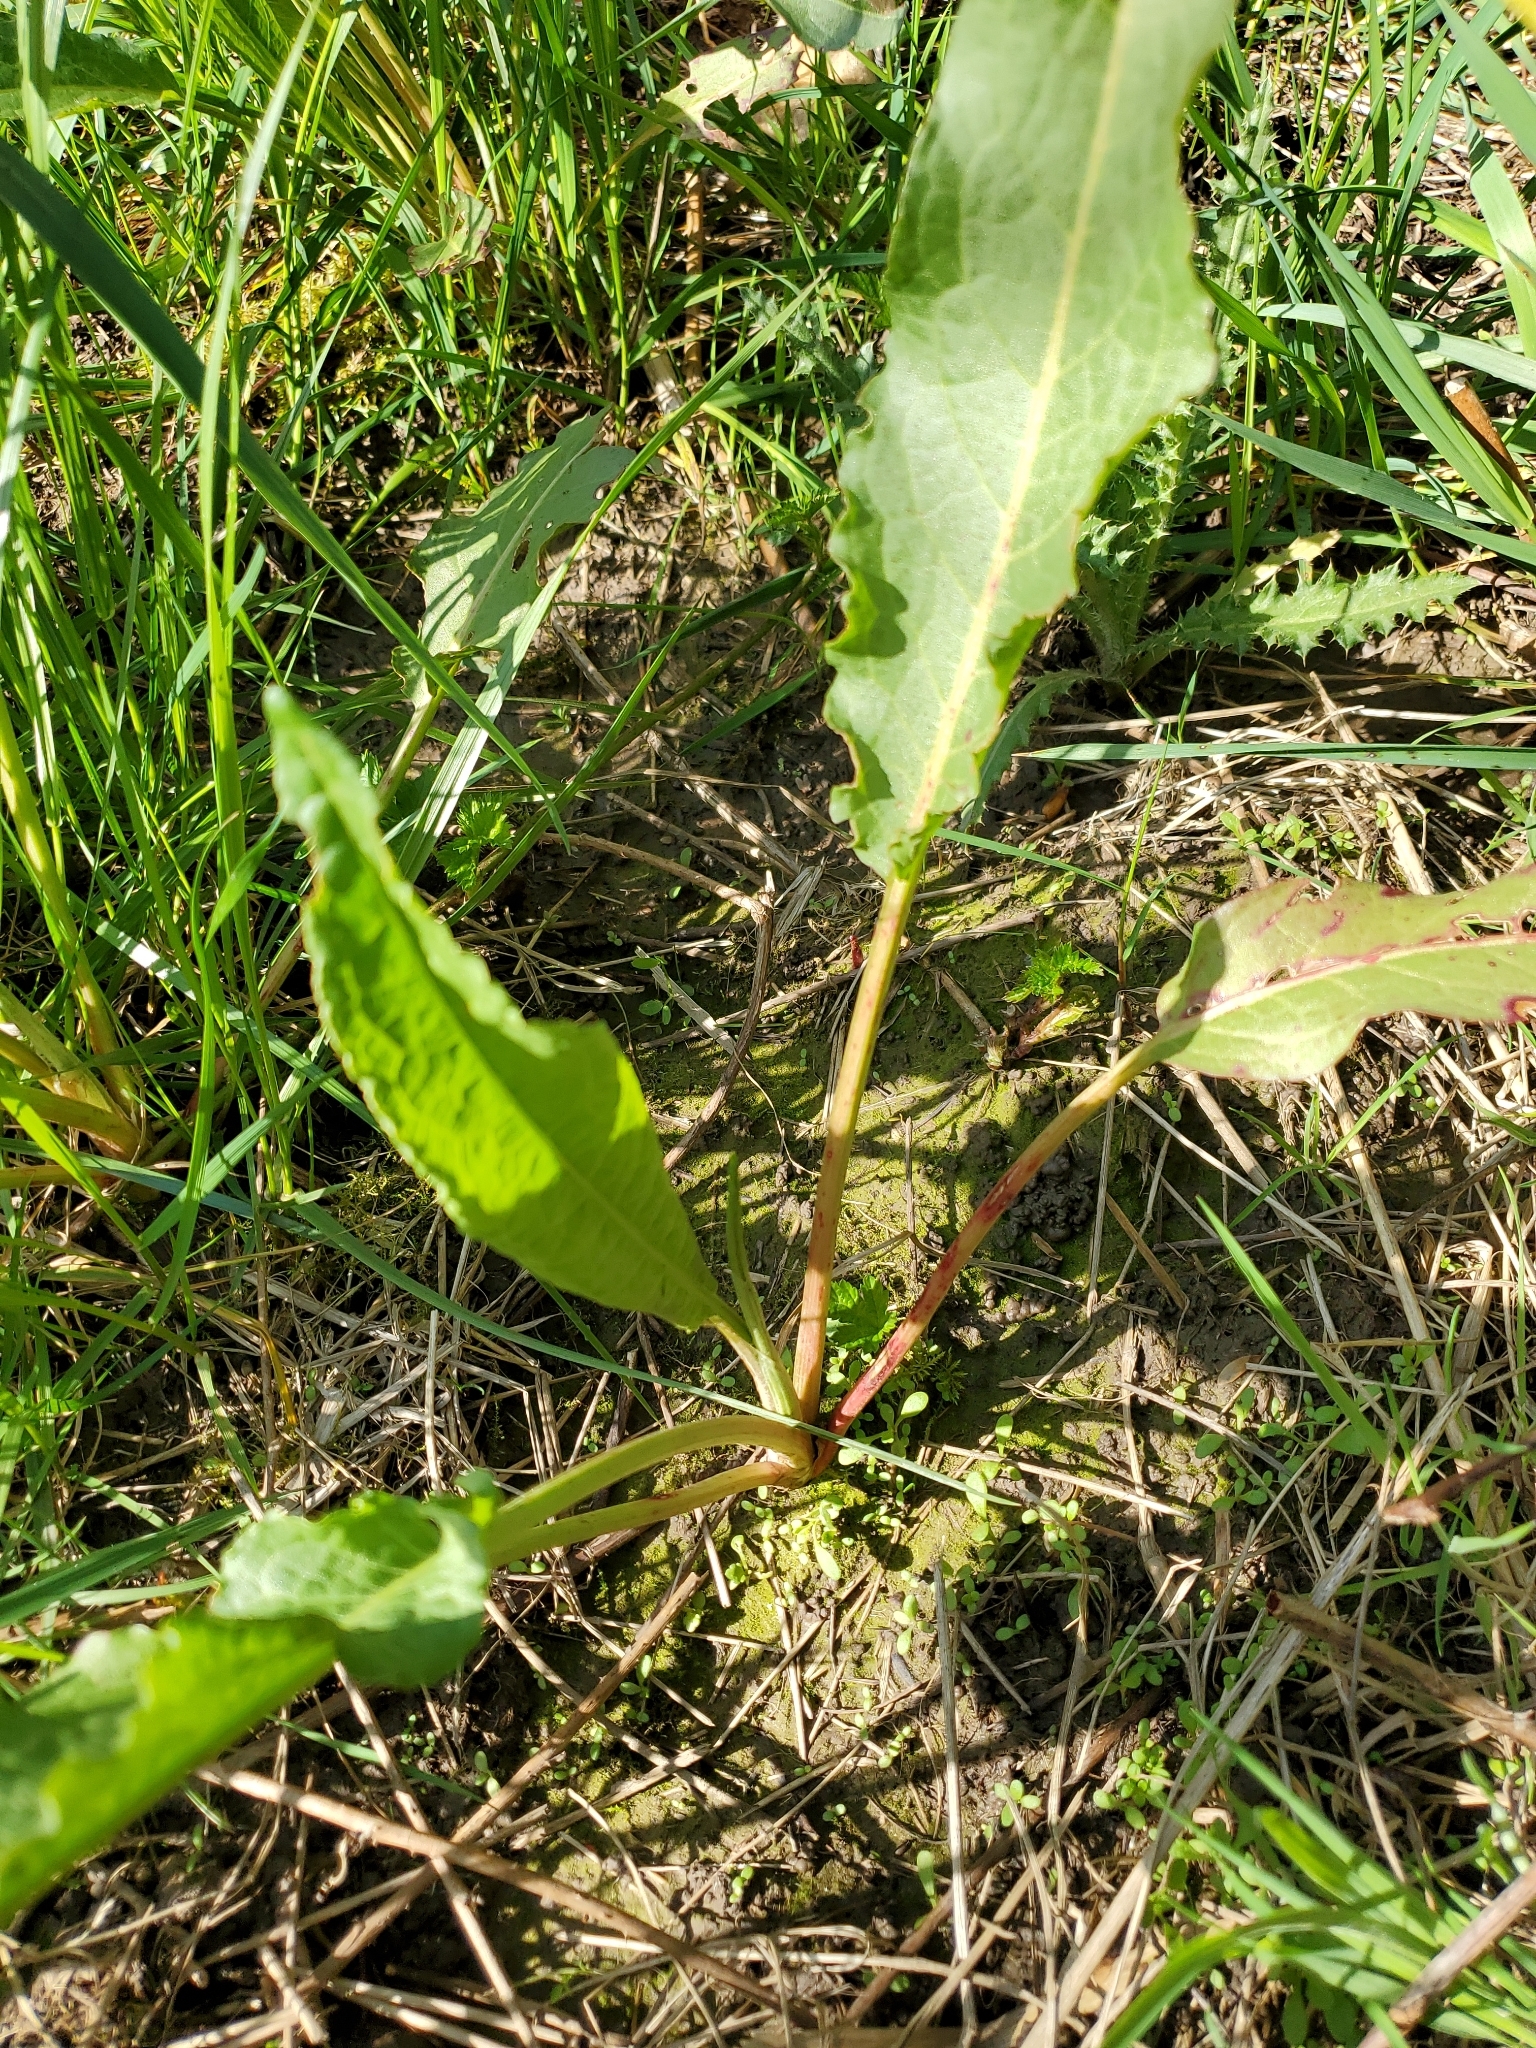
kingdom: Plantae
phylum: Tracheophyta
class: Magnoliopsida
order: Caryophyllales
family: Polygonaceae
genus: Rumex
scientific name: Rumex crispus
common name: Curled dock
